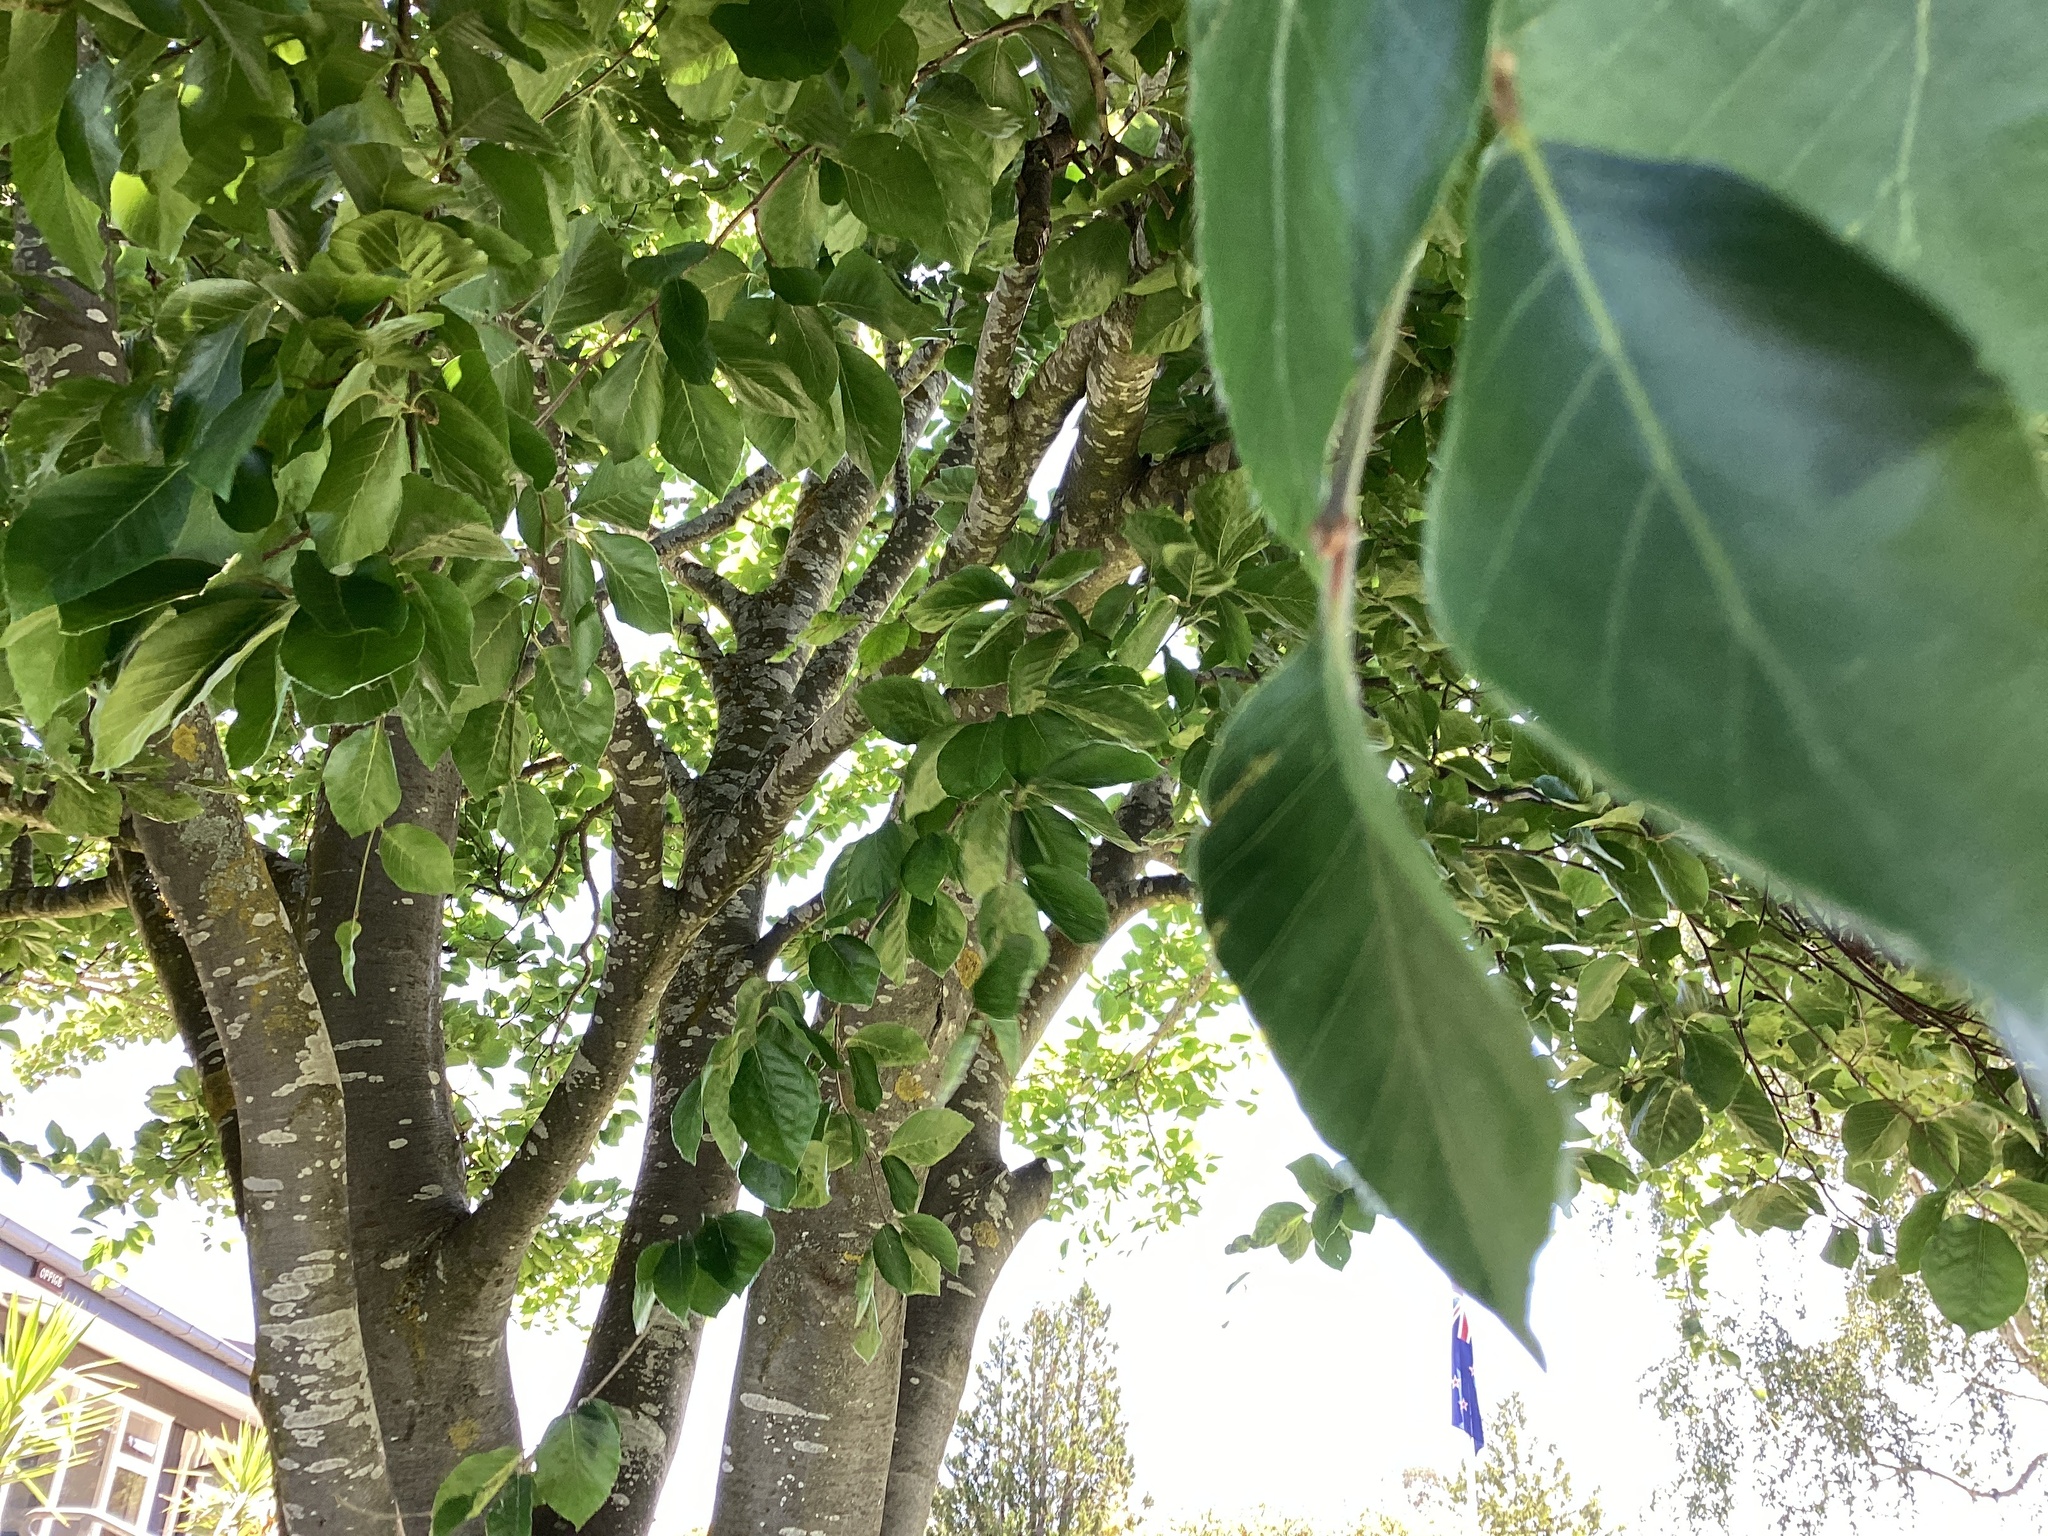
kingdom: Plantae
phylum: Tracheophyta
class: Magnoliopsida
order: Fagales
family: Fagaceae
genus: Fagus
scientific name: Fagus sylvatica
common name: Beech
